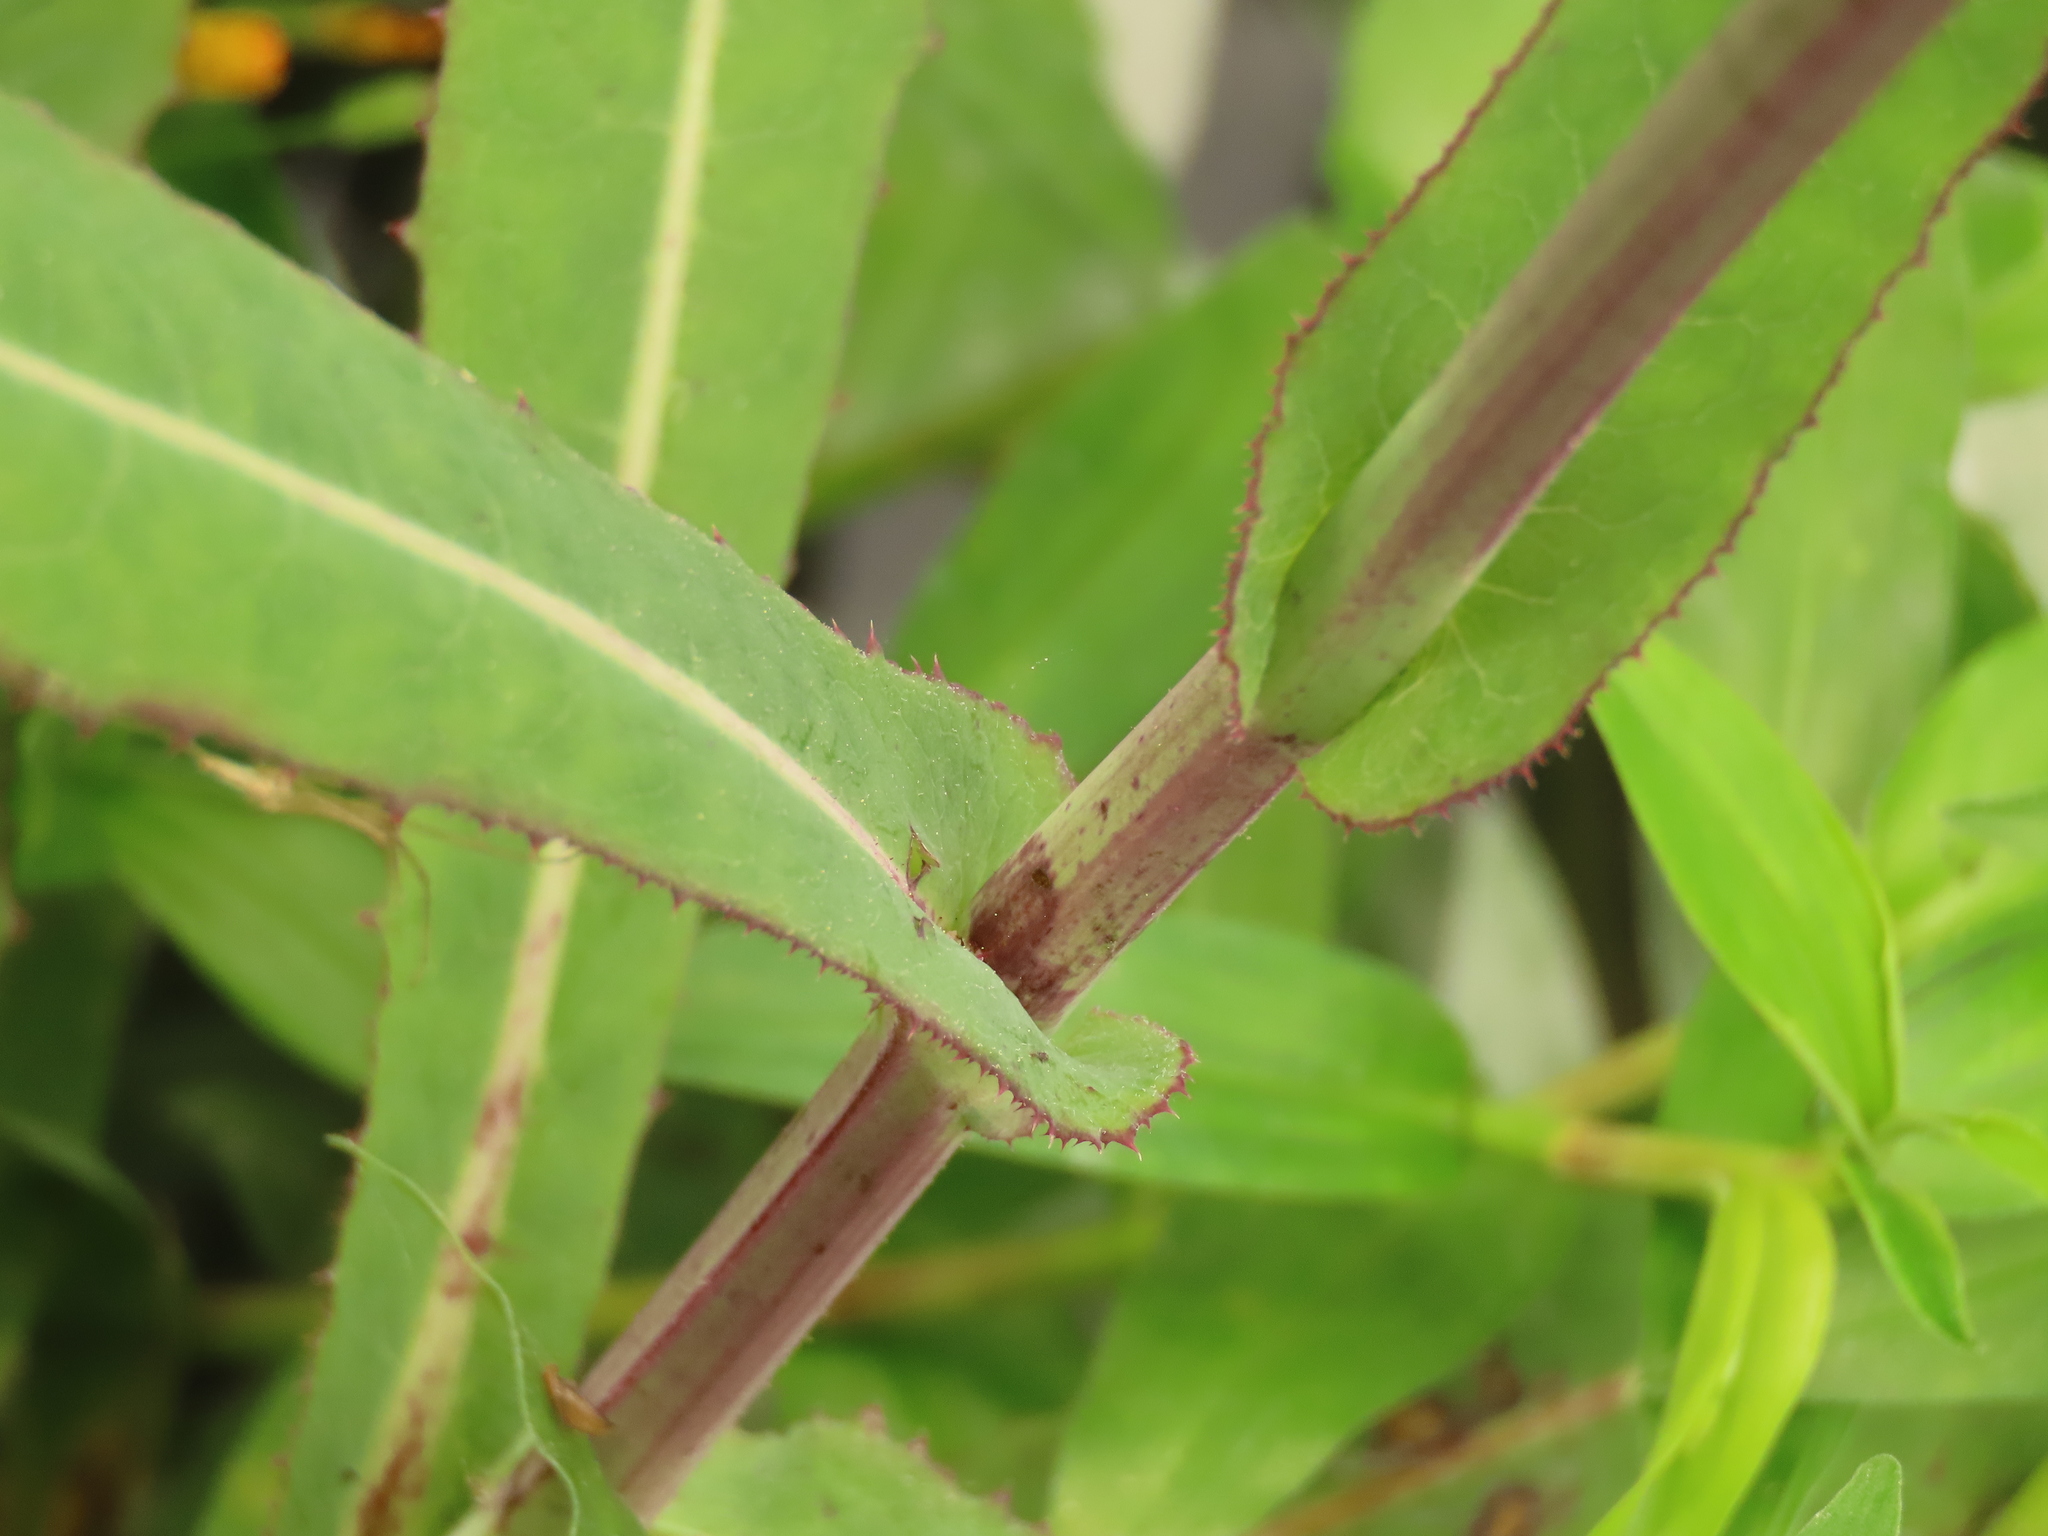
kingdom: Plantae
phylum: Tracheophyta
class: Magnoliopsida
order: Asterales
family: Asteraceae
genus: Sonchus
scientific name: Sonchus arvensis
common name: Perennial sow-thistle
